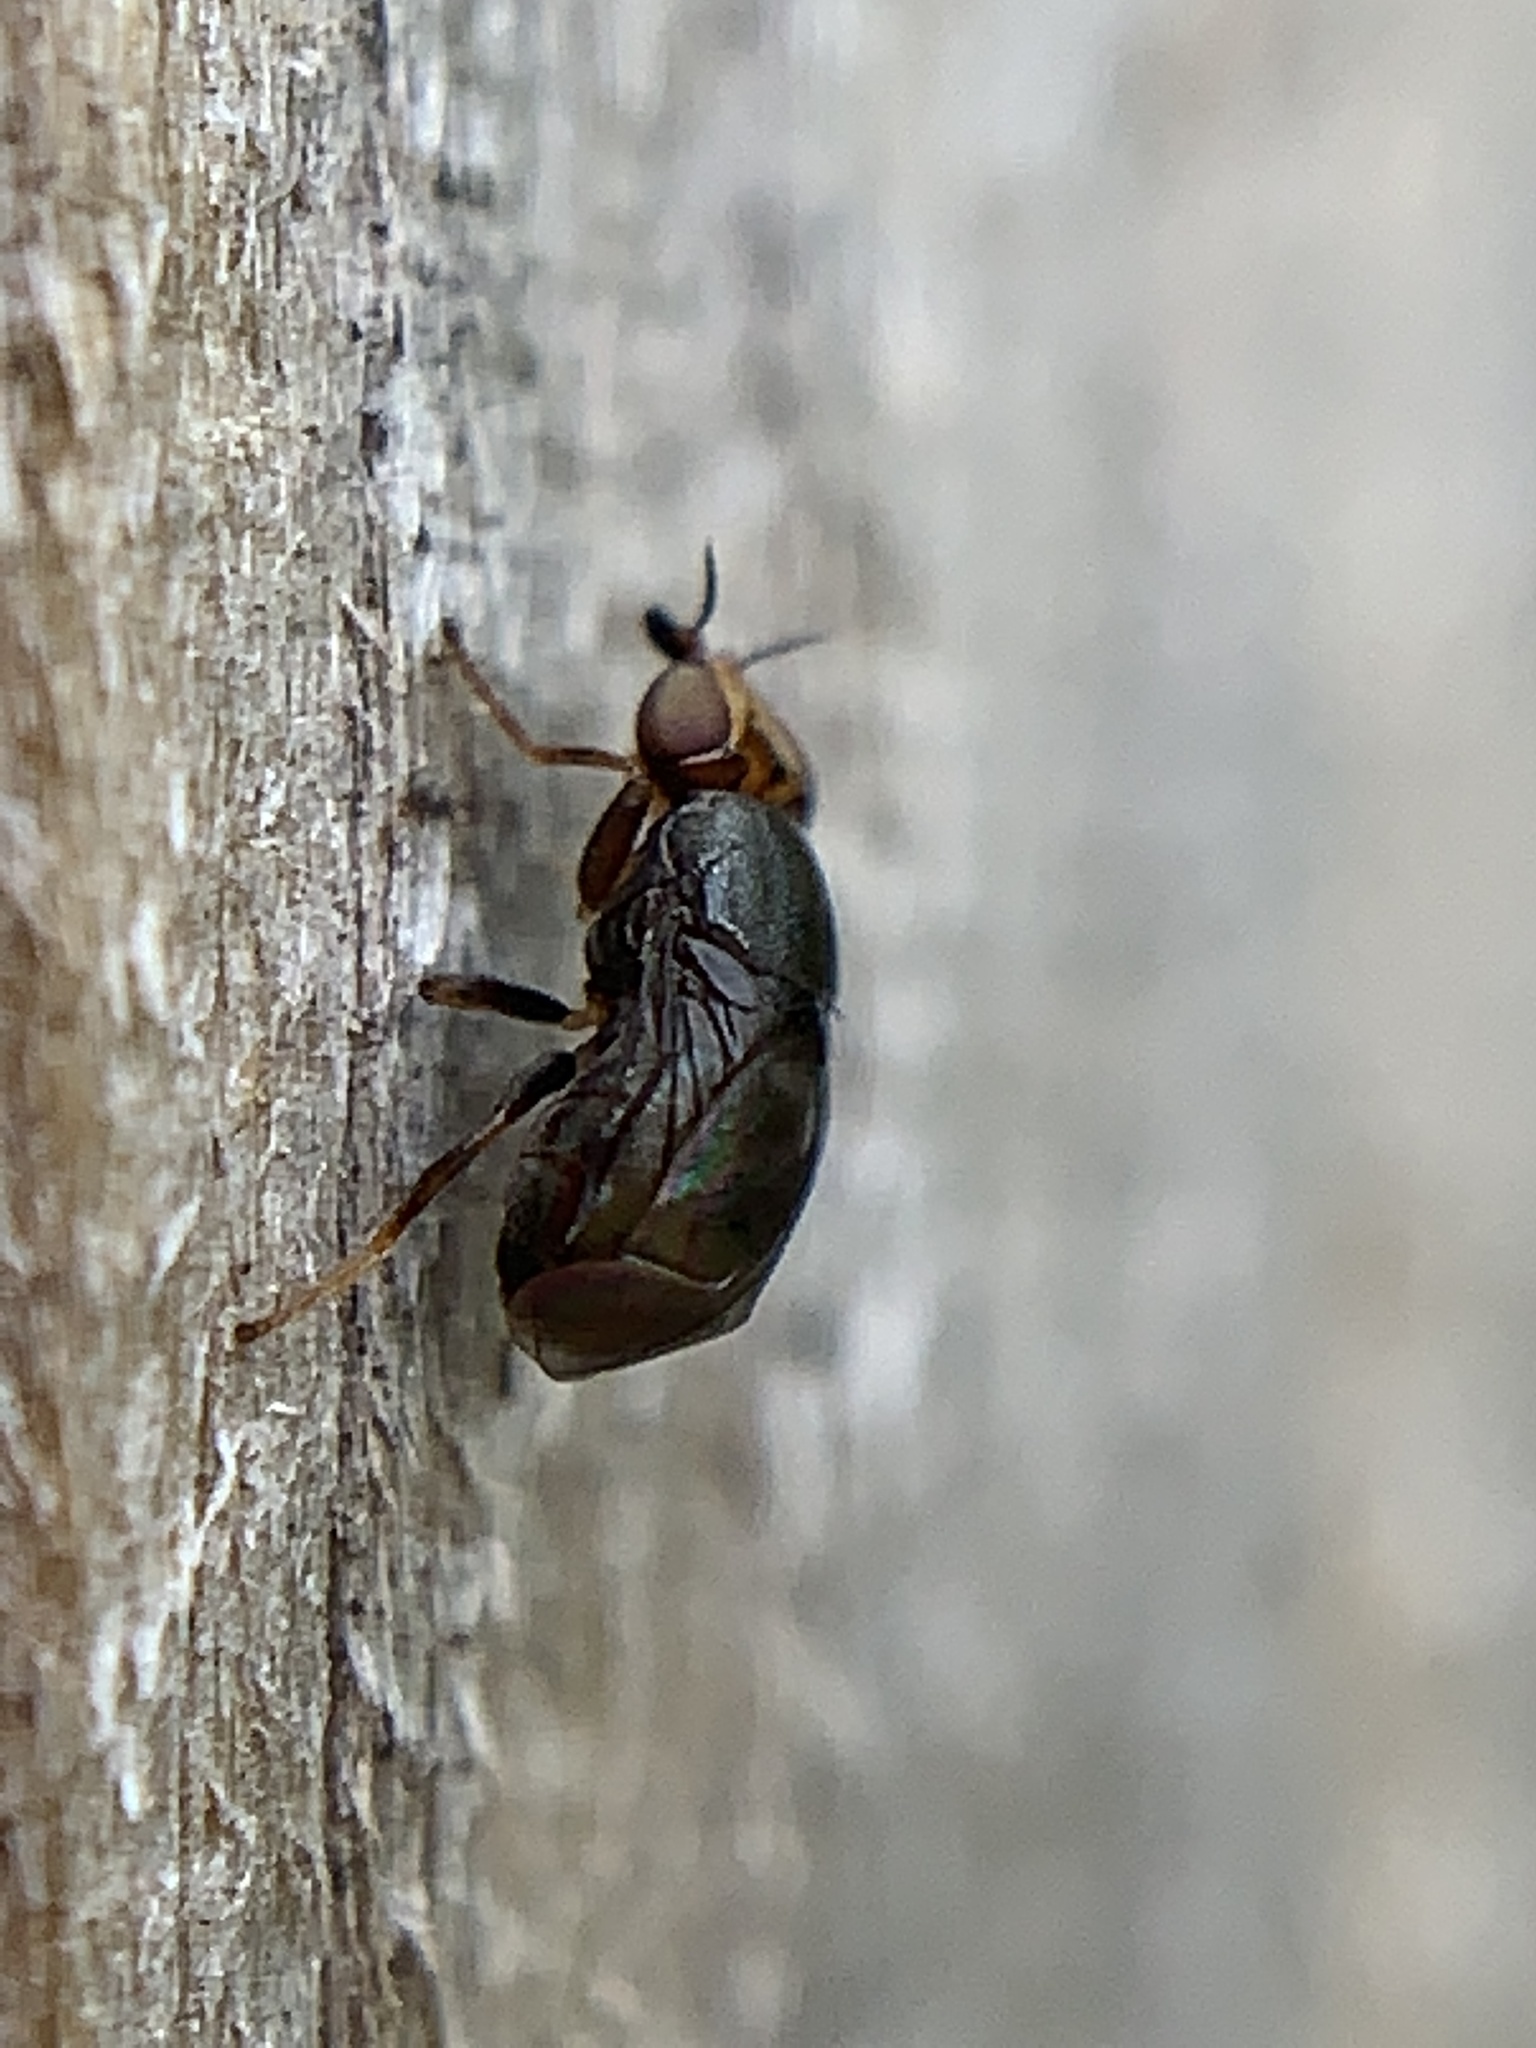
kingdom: Animalia
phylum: Arthropoda
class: Insecta
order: Diptera
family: Chloropidae
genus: Camarota
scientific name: Camarota curvipennis
